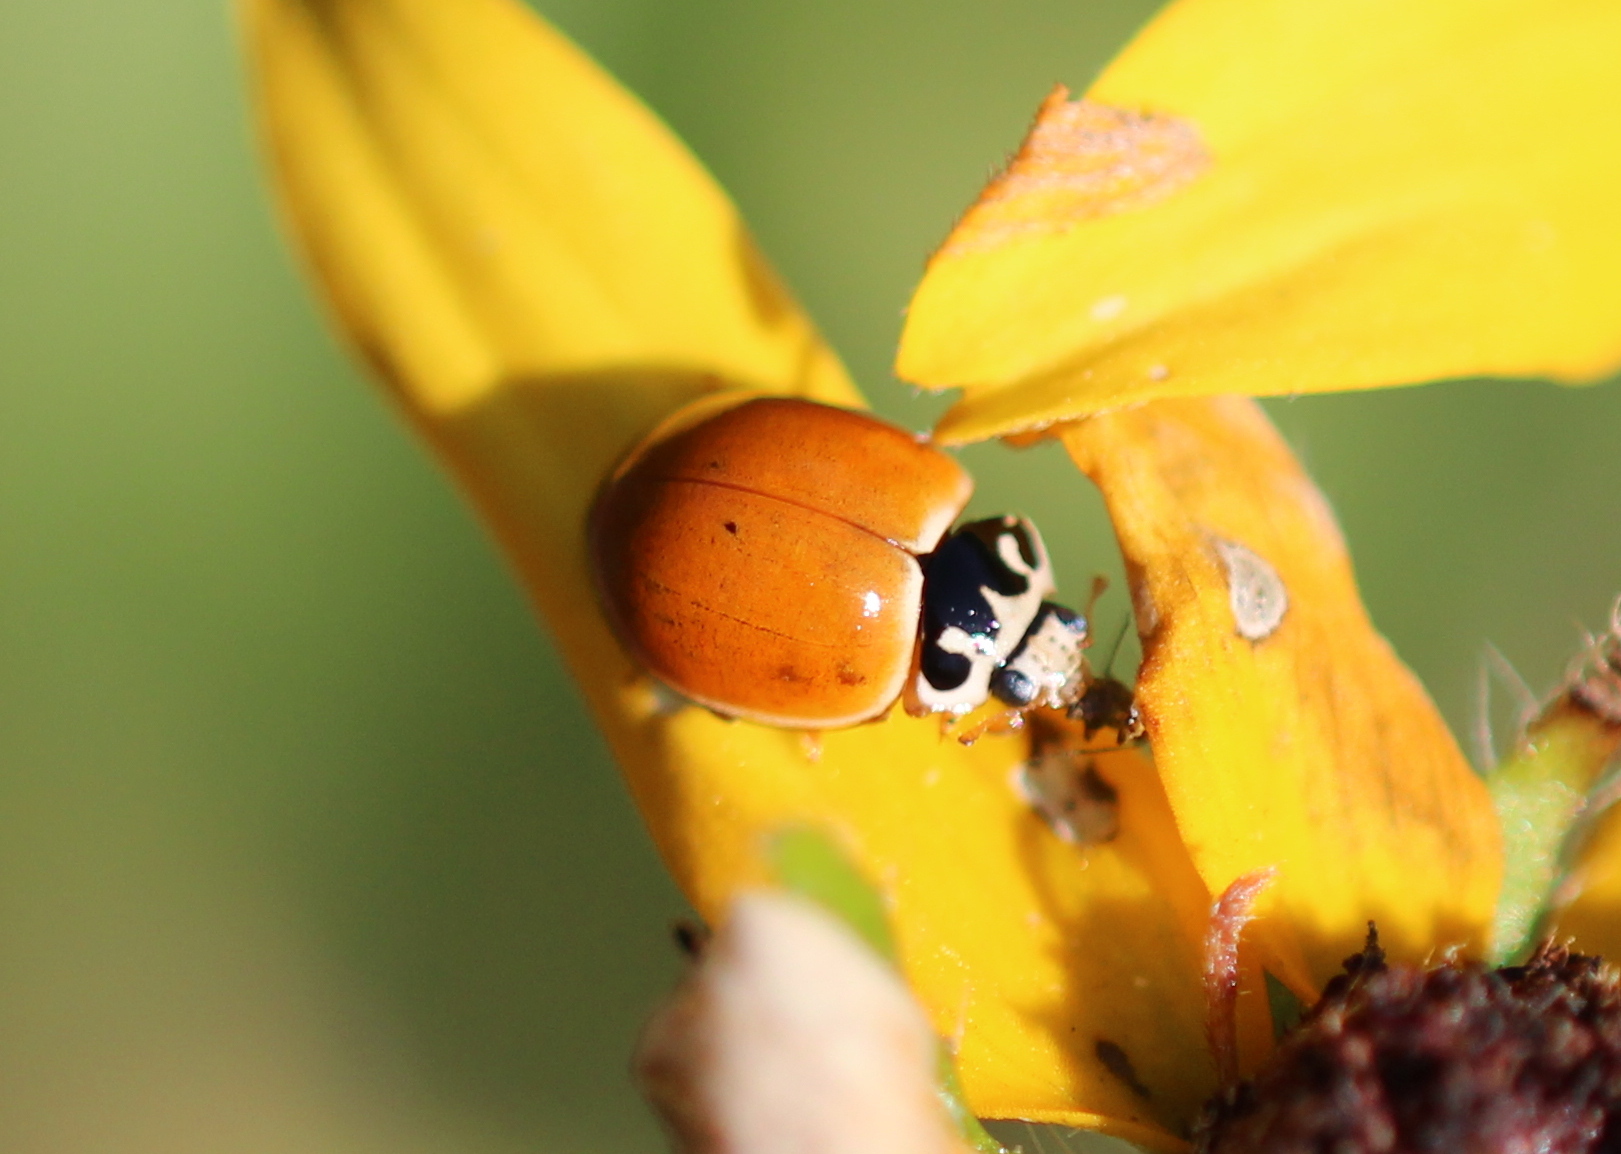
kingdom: Animalia
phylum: Arthropoda
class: Insecta
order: Coleoptera
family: Coccinellidae
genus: Cycloneda
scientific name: Cycloneda munda
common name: Polished lady beetle
